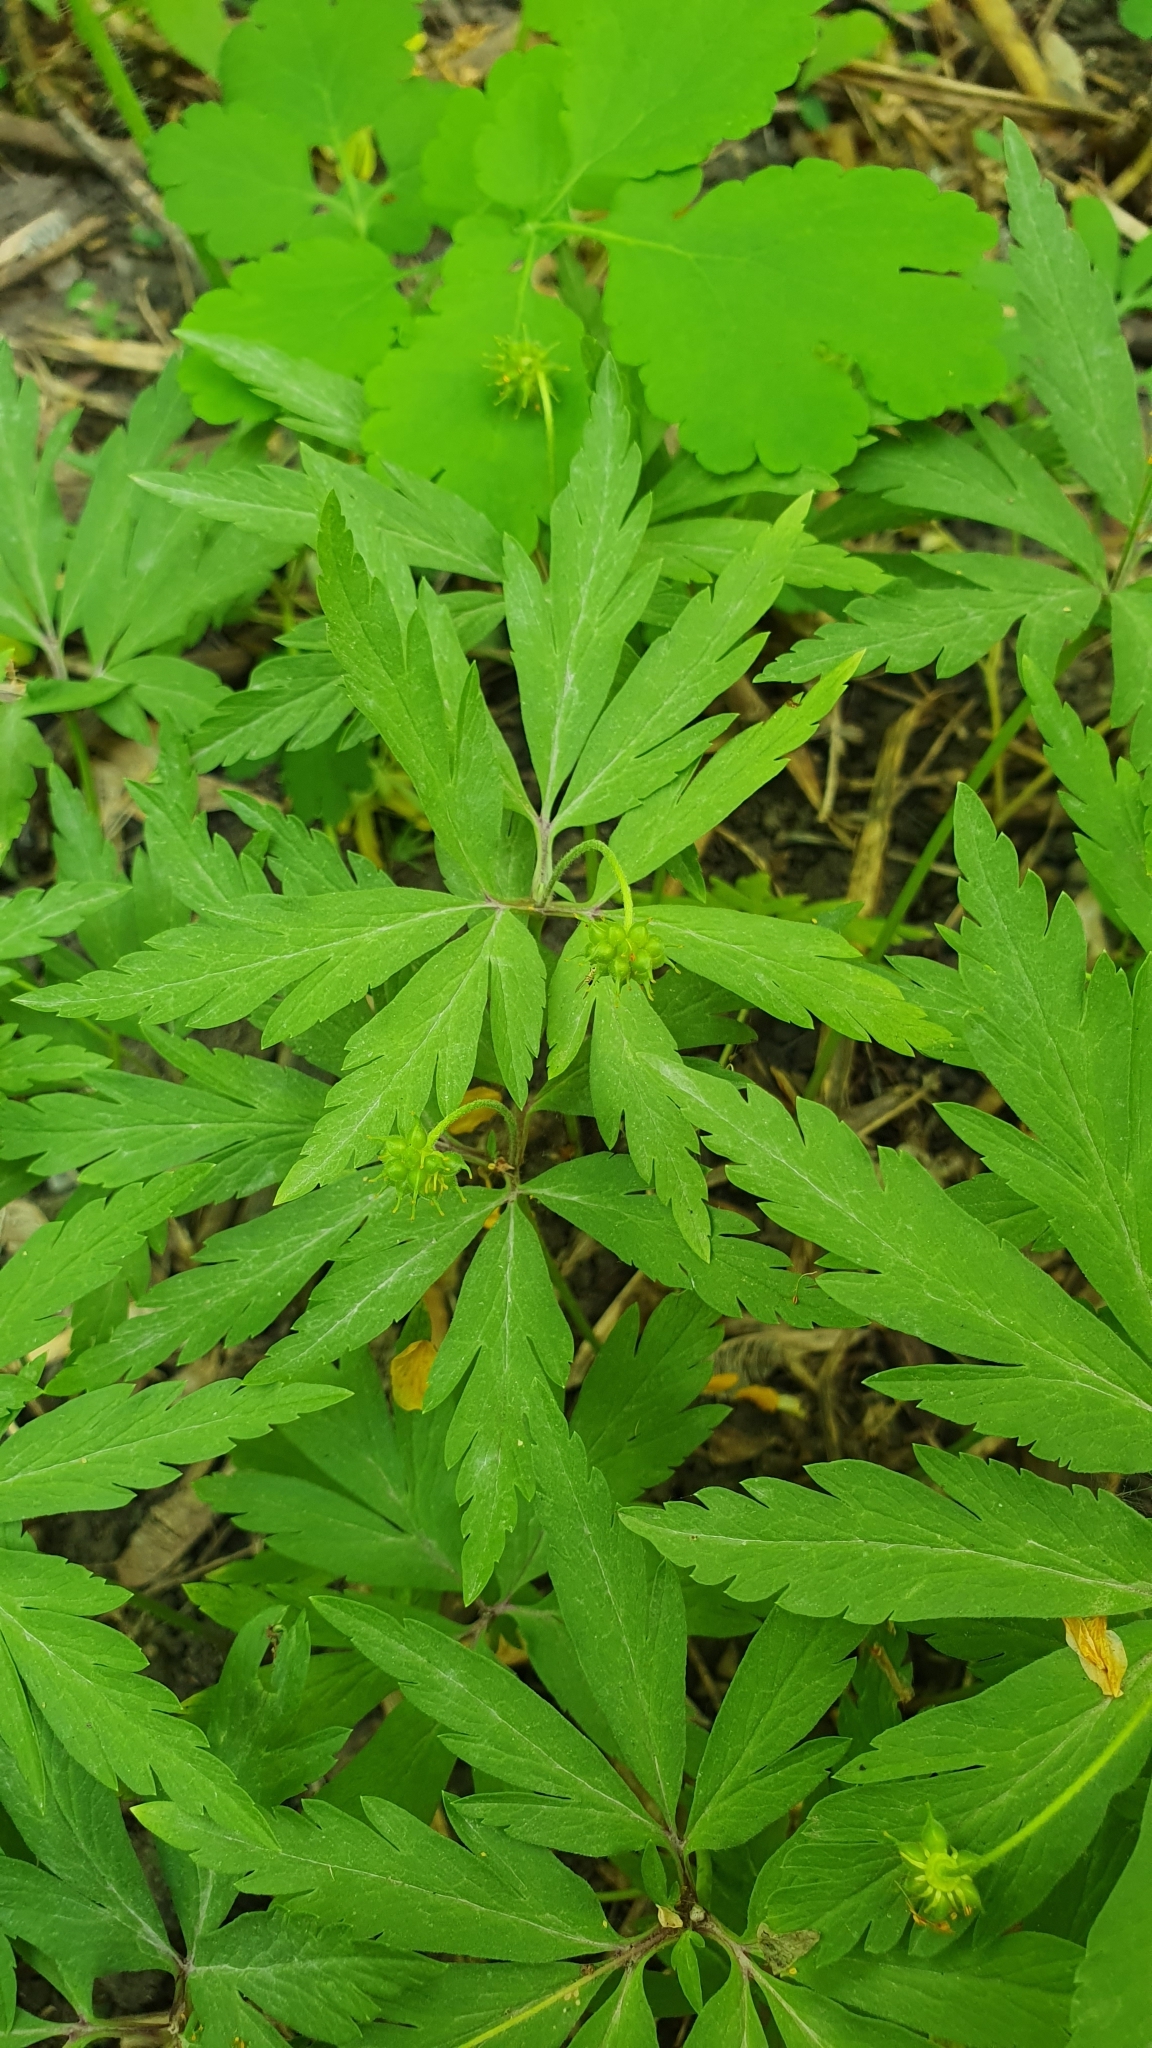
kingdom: Plantae
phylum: Tracheophyta
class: Magnoliopsida
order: Ranunculales
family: Ranunculaceae
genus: Anemone
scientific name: Anemone ranunculoides
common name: Yellow anemone
